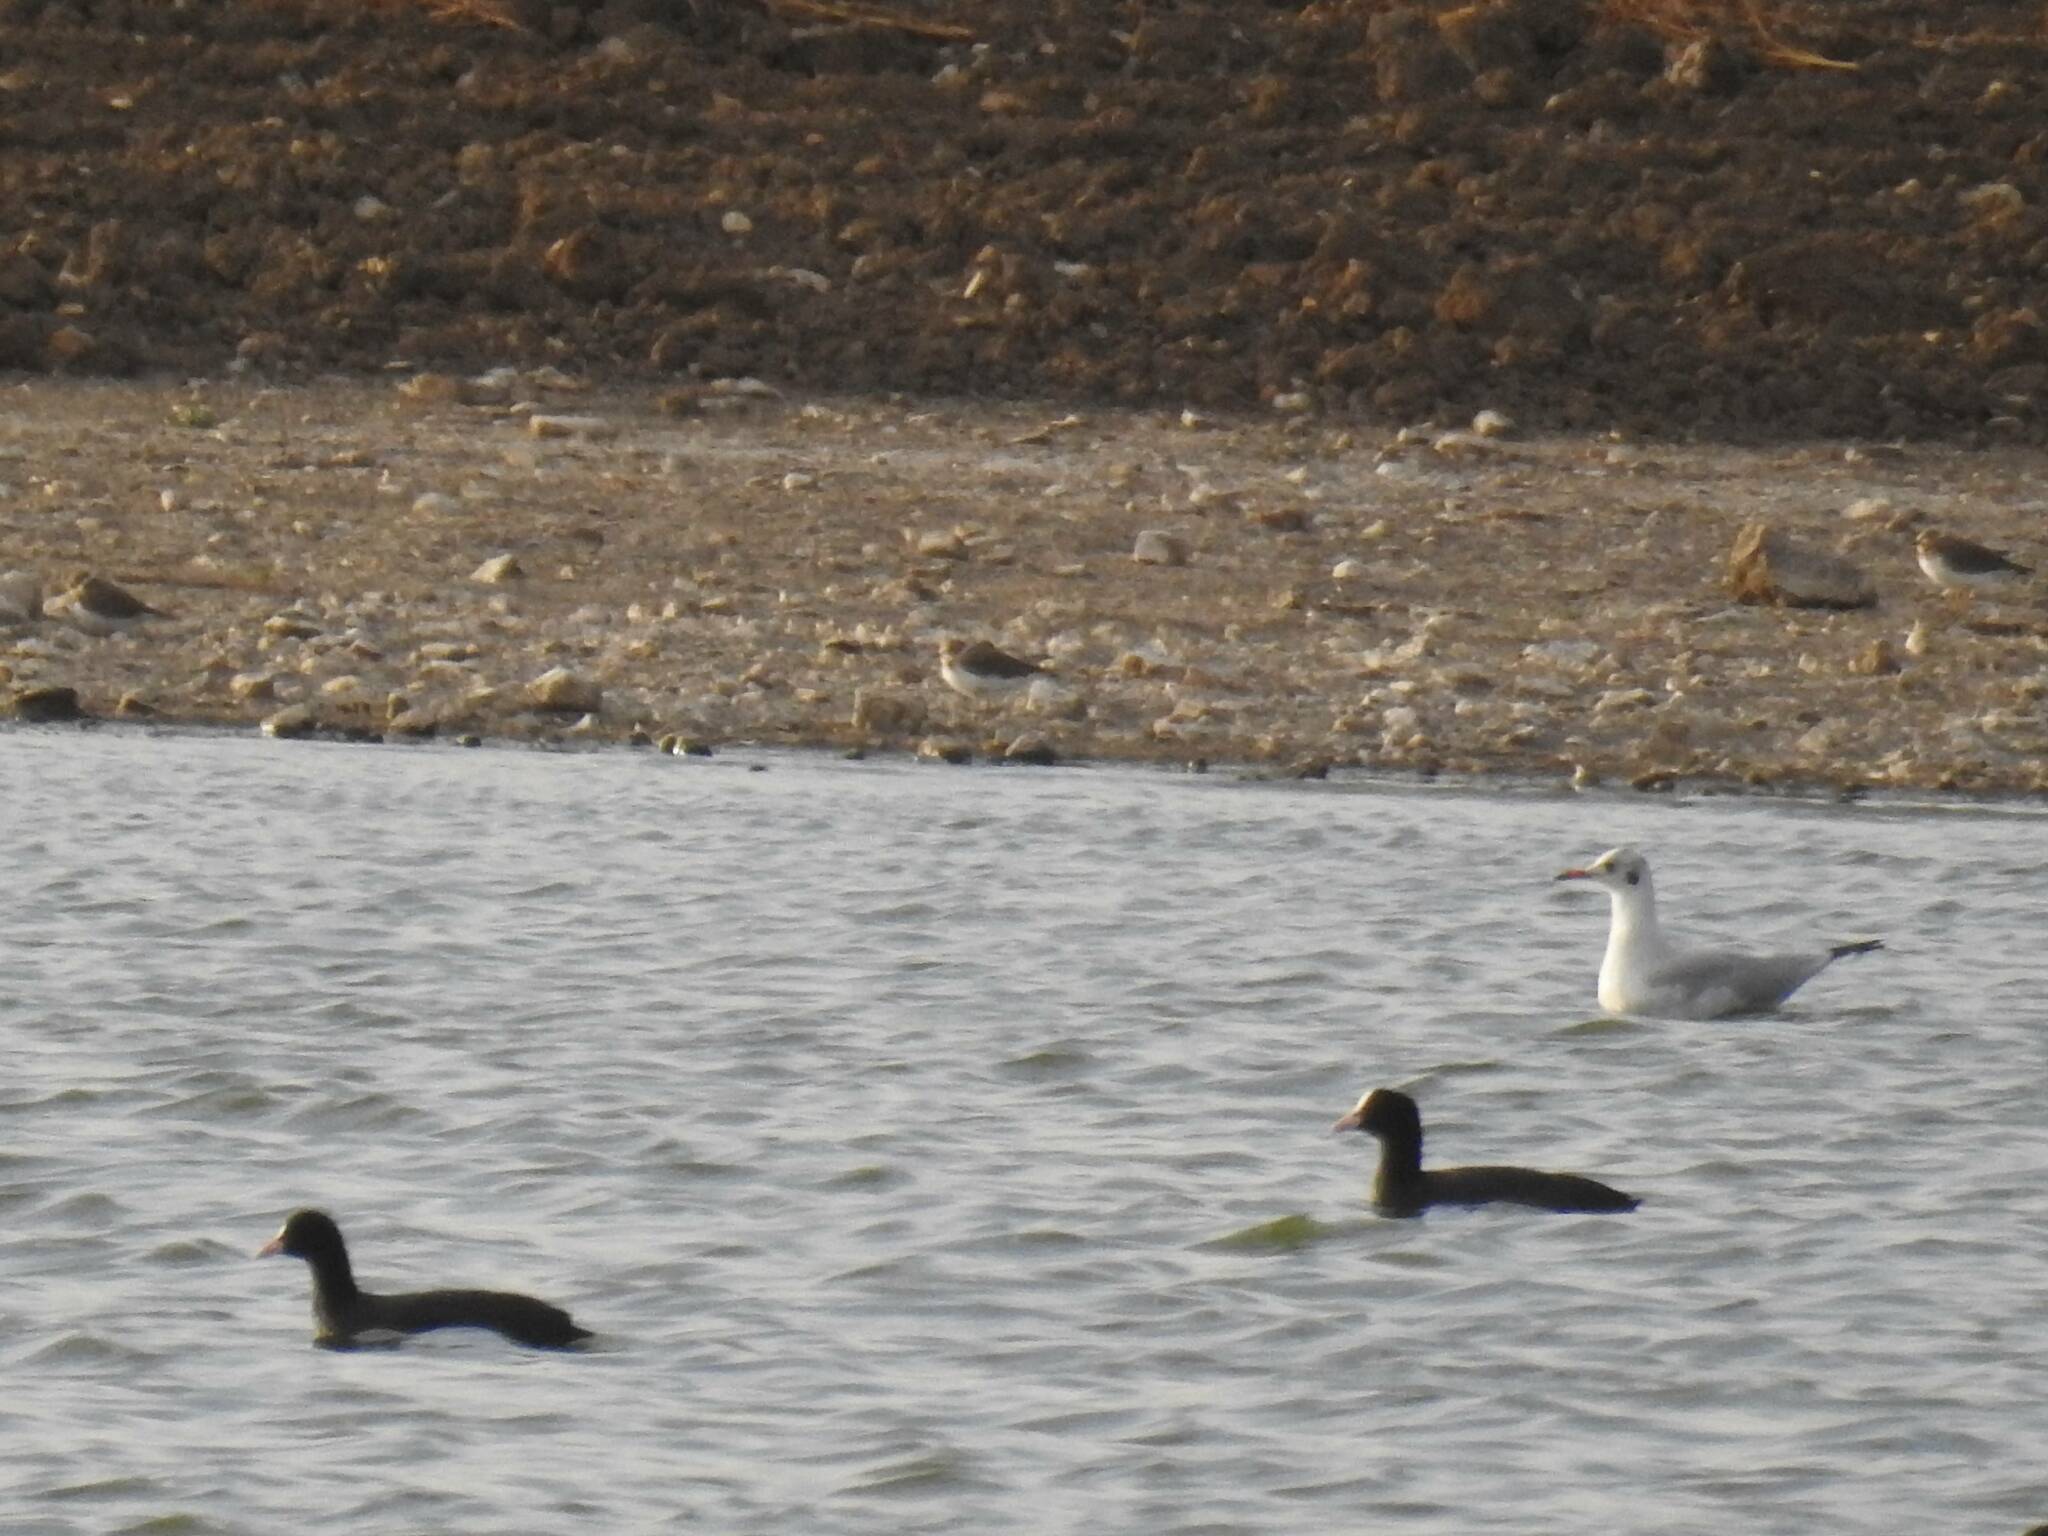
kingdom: Animalia
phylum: Chordata
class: Aves
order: Gruiformes
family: Rallidae
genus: Fulica
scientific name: Fulica atra
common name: Eurasian coot
